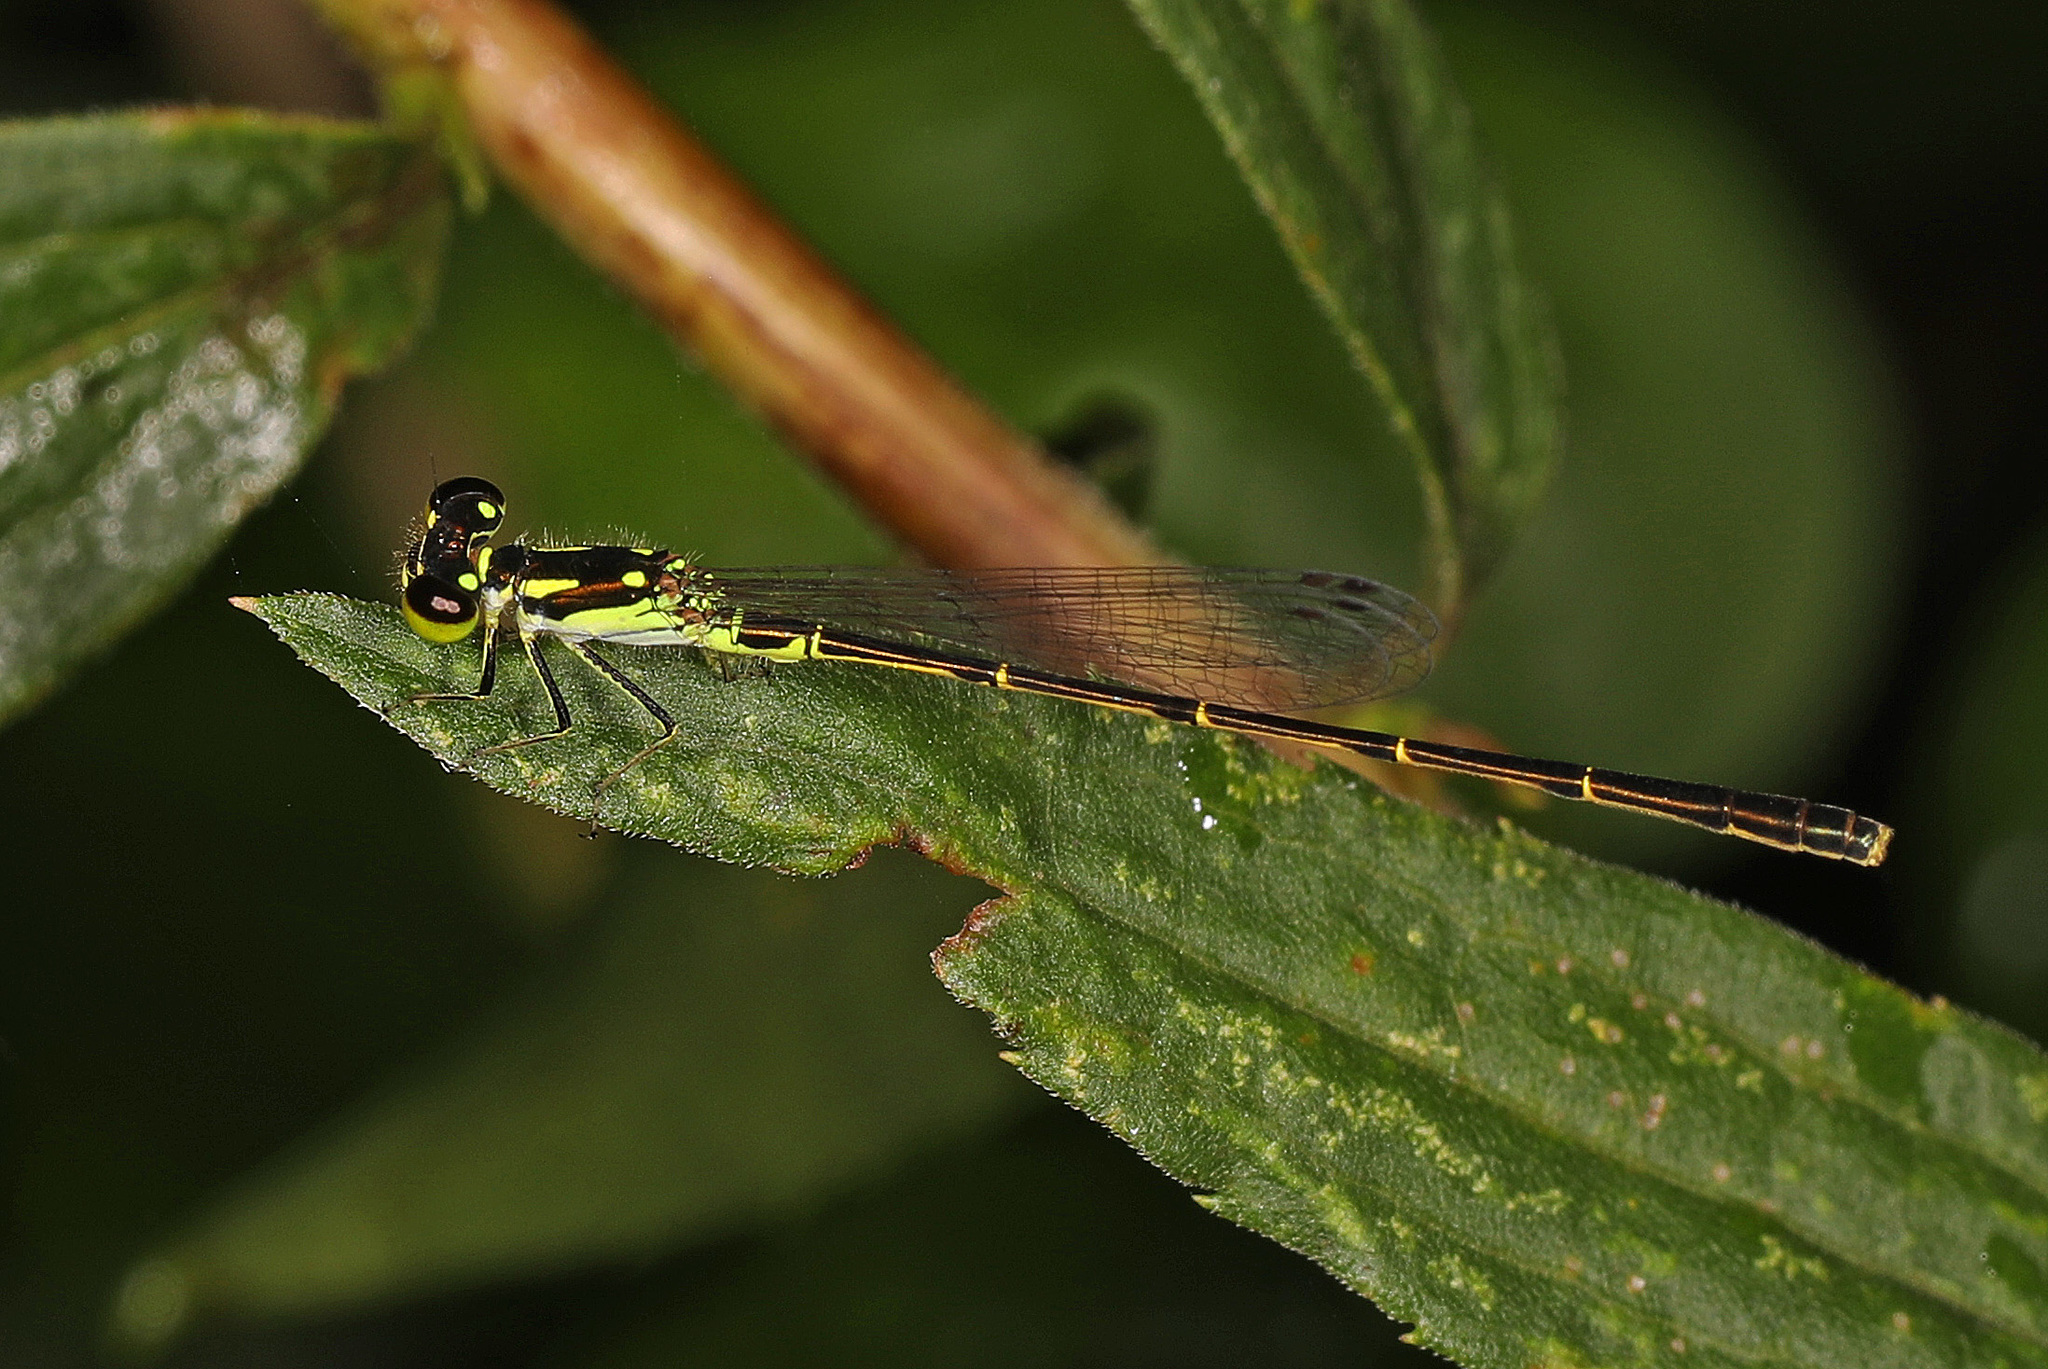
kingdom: Animalia
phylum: Arthropoda
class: Insecta
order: Odonata
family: Coenagrionidae
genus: Ischnura
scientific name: Ischnura posita
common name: Fragile forktail
